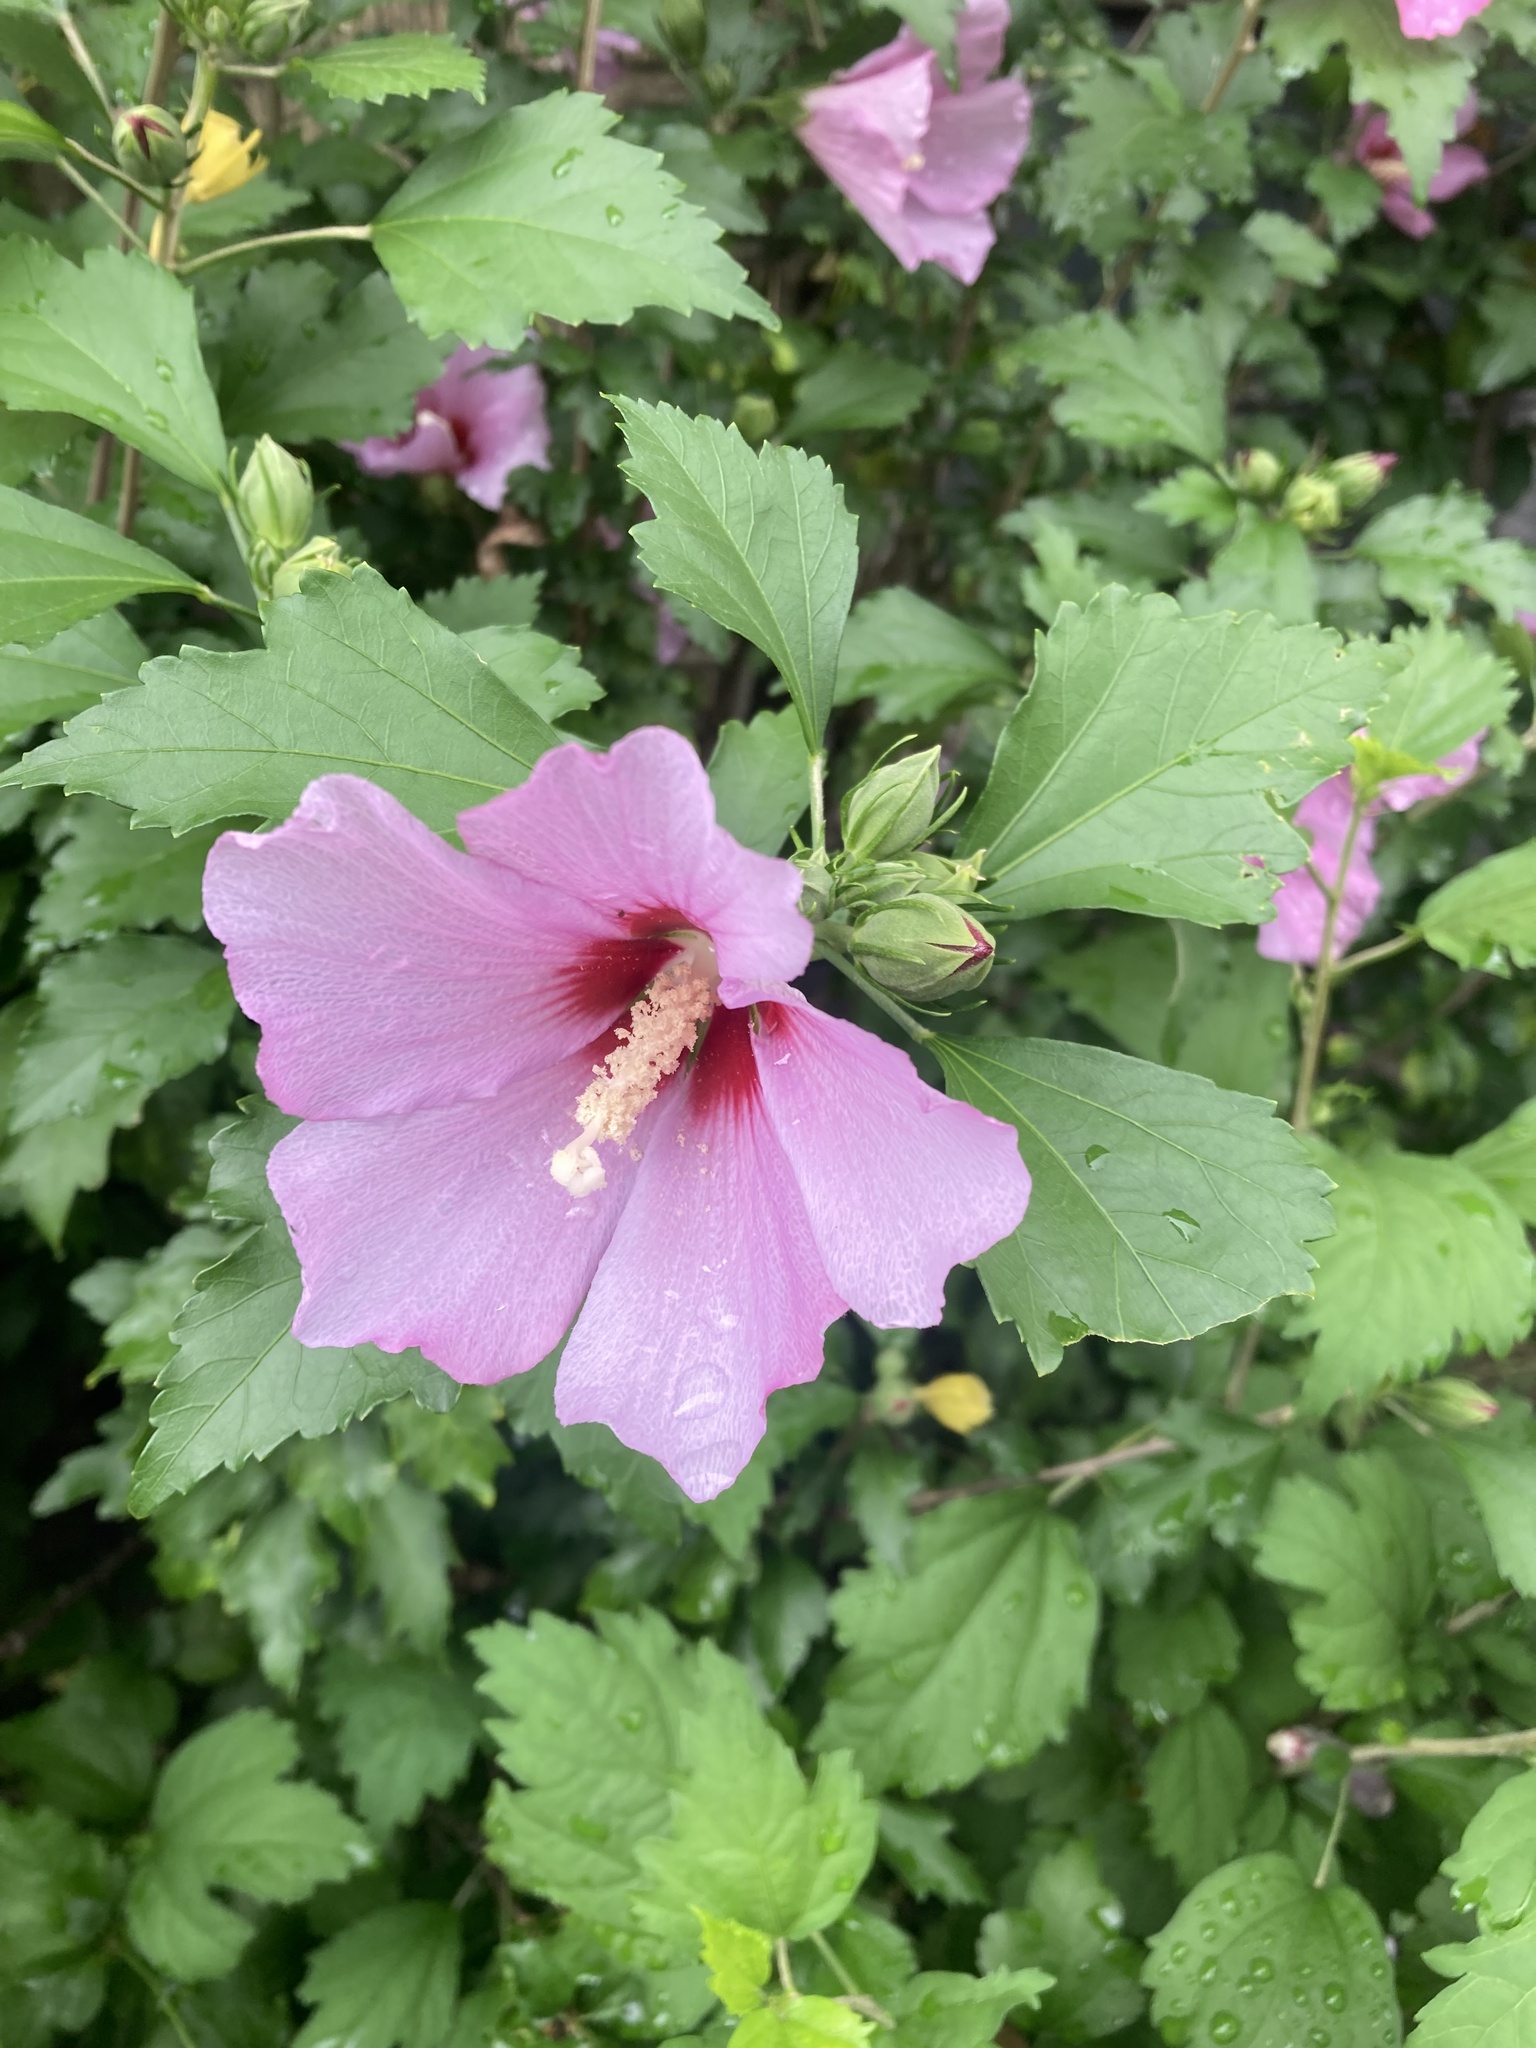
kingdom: Plantae
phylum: Tracheophyta
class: Magnoliopsida
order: Malvales
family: Malvaceae
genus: Hibiscus
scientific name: Hibiscus syriacus
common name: Syrian ketmia
